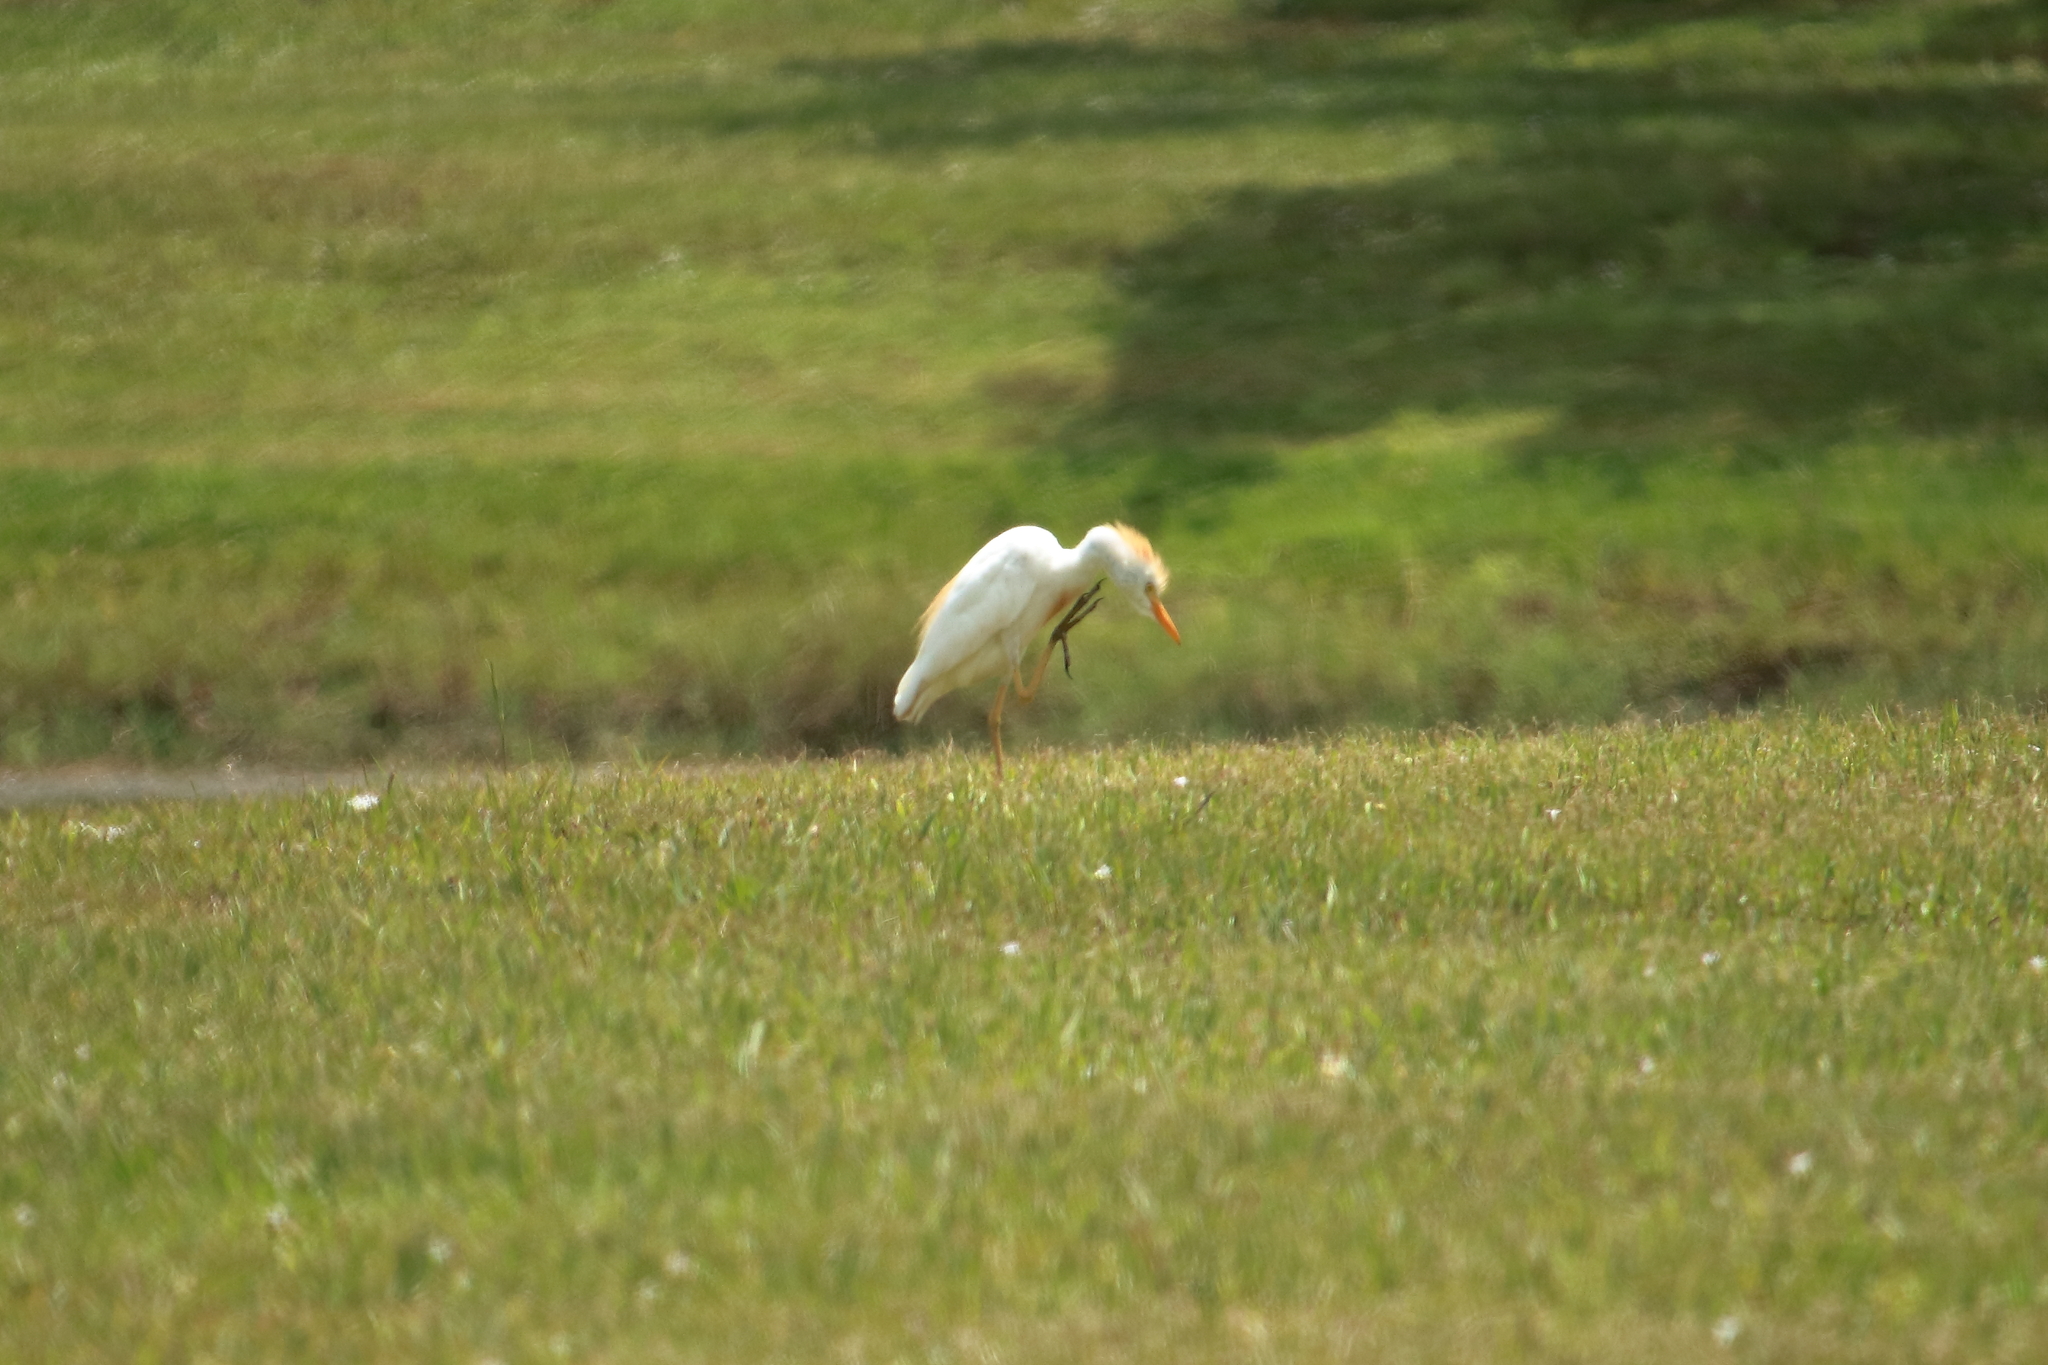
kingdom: Animalia
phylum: Chordata
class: Aves
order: Pelecaniformes
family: Ardeidae
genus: Bubulcus
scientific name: Bubulcus ibis
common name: Cattle egret
